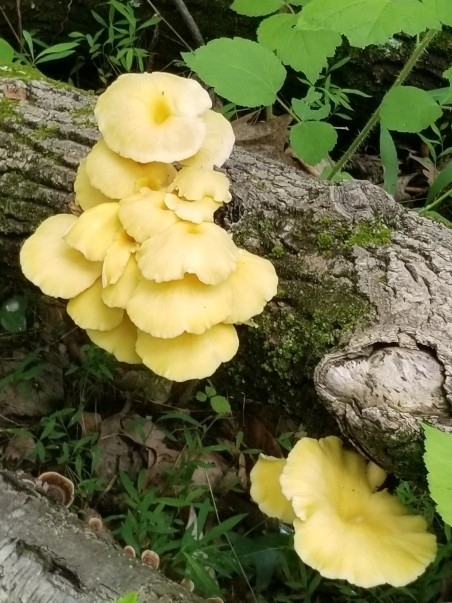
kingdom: Fungi
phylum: Basidiomycota
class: Agaricomycetes
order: Agaricales
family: Pleurotaceae
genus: Pleurotus
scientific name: Pleurotus citrinopileatus
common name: Golden oyster mushroom
